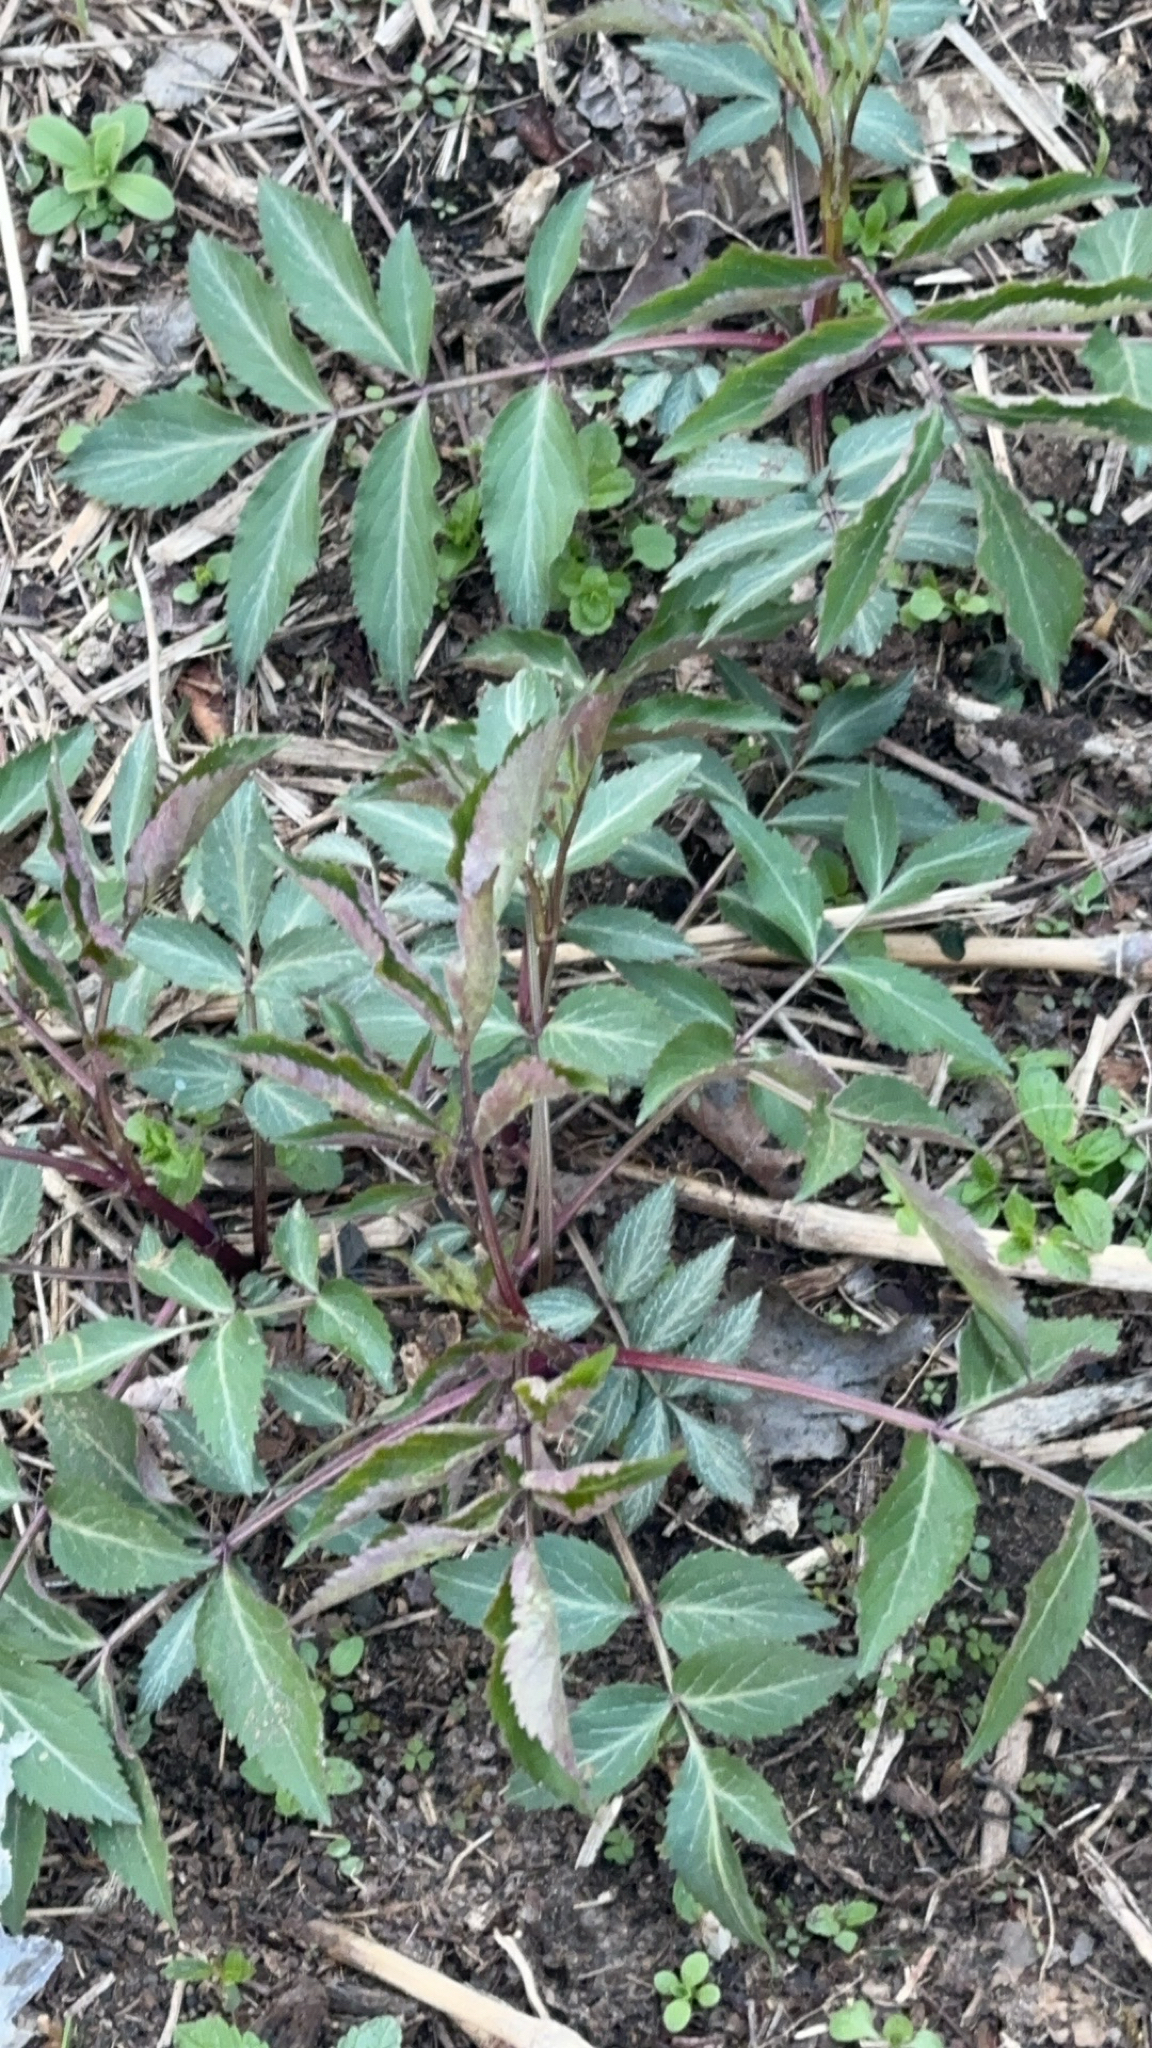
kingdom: Plantae
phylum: Tracheophyta
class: Magnoliopsida
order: Dipsacales
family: Viburnaceae
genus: Sambucus
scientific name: Sambucus canadensis
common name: American elder
